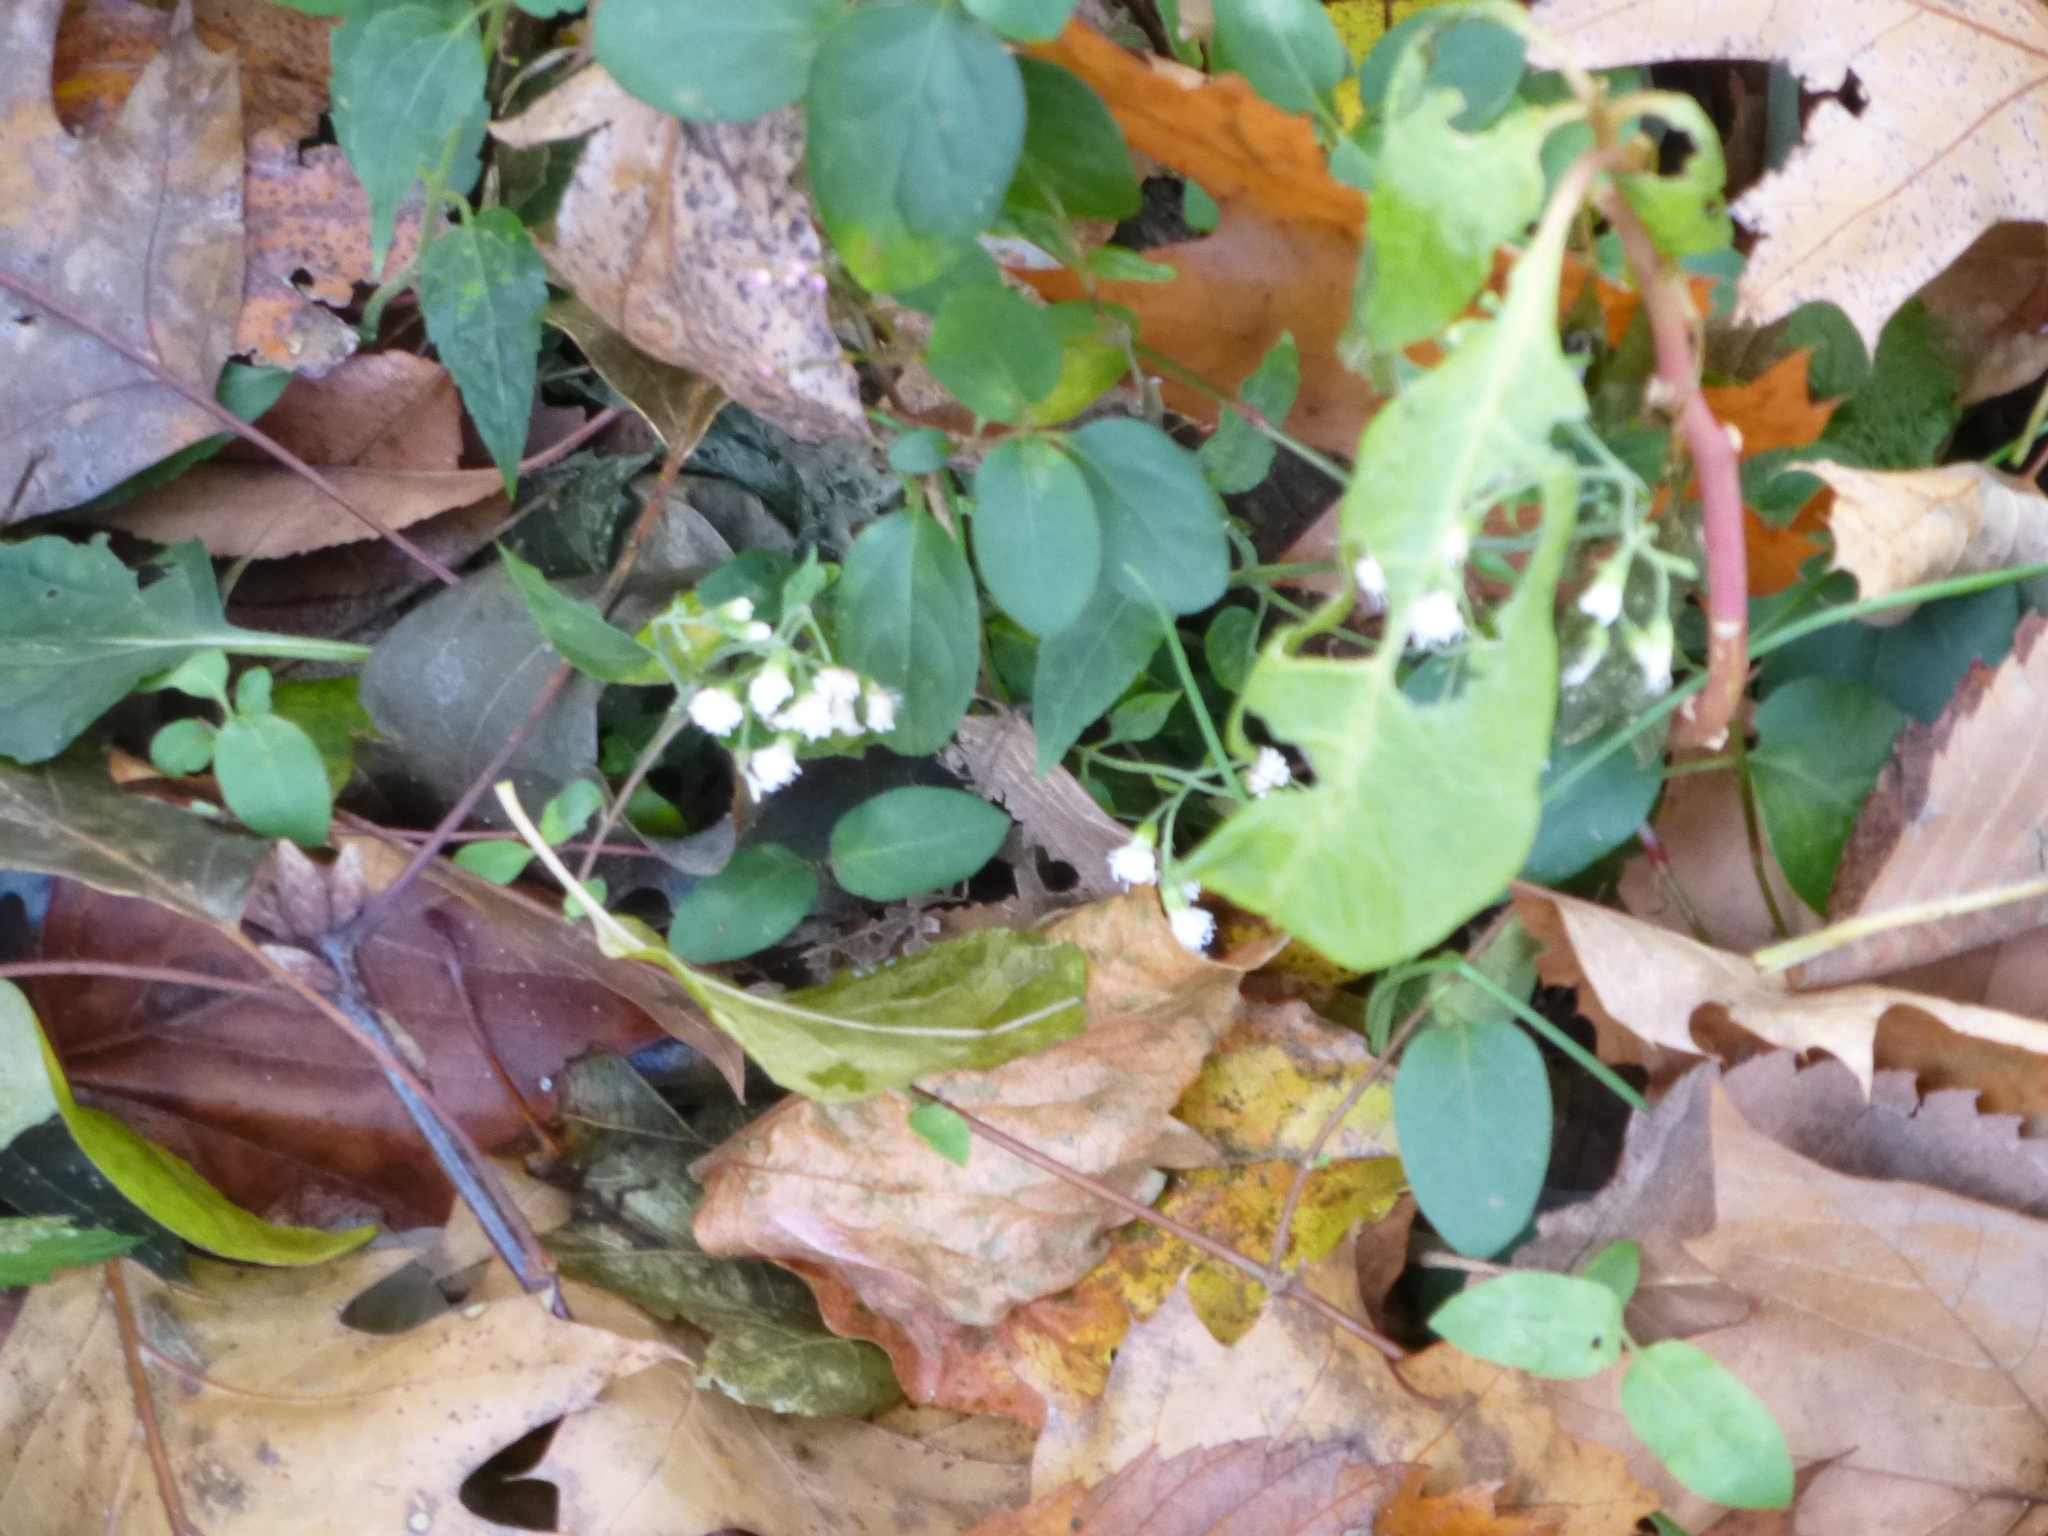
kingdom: Plantae
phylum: Tracheophyta
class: Magnoliopsida
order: Asterales
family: Asteraceae
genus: Ageratina
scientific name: Ageratina altissima
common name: White snakeroot
